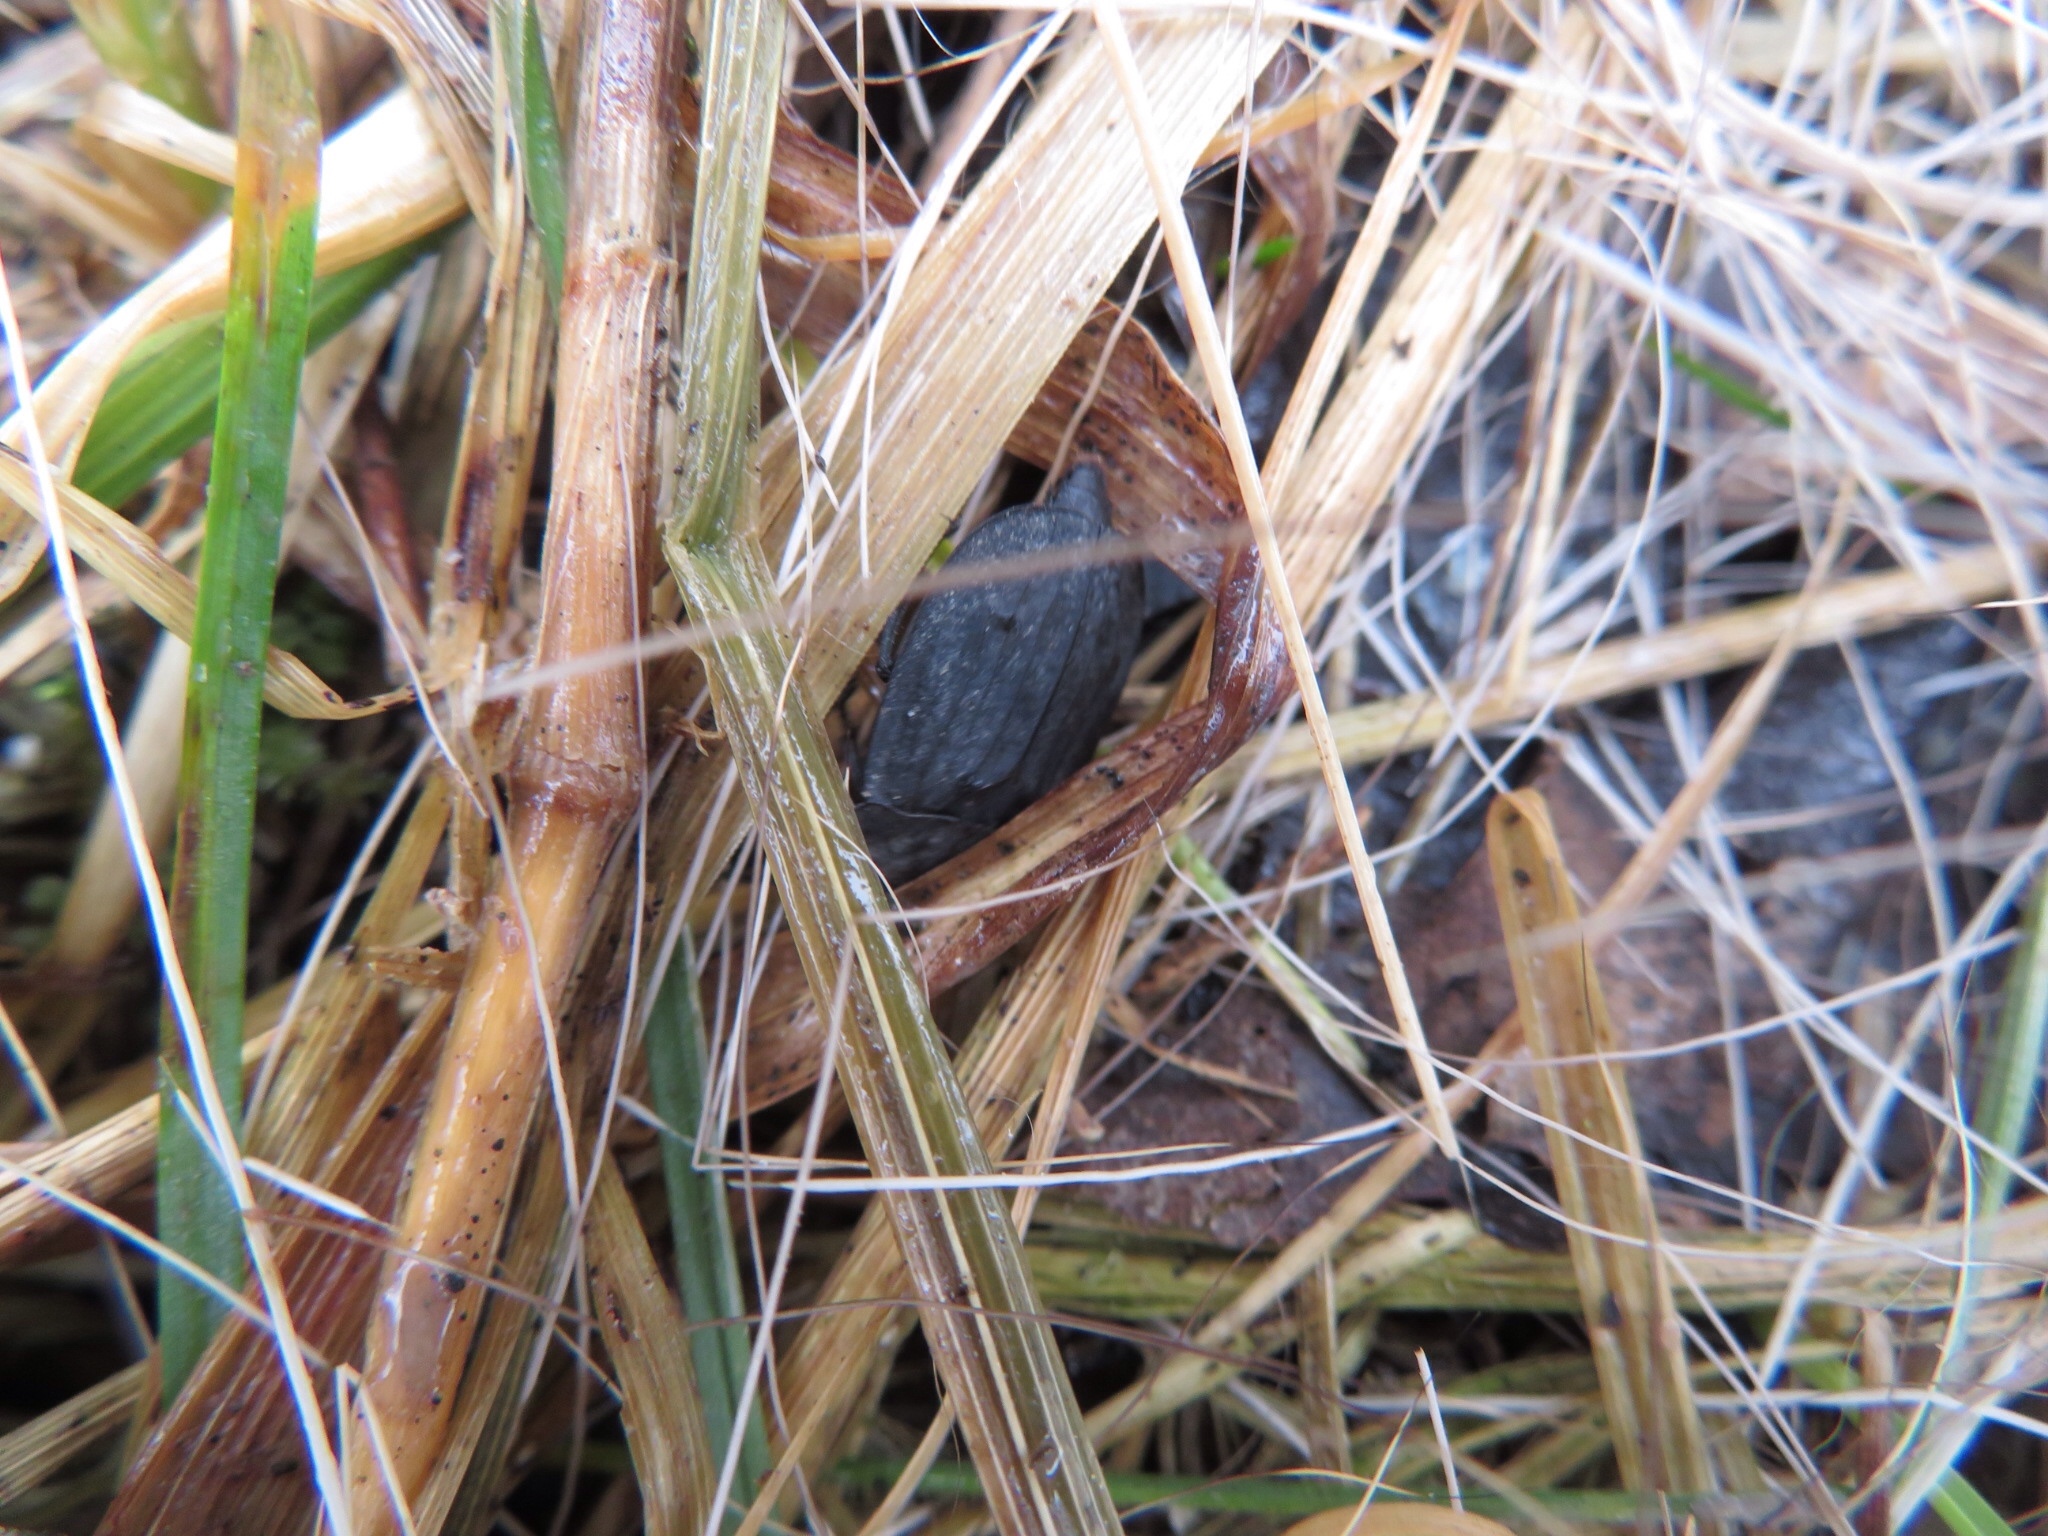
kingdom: Animalia
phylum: Arthropoda
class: Insecta
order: Coleoptera
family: Staphylinidae
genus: Oiceoptoma
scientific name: Oiceoptoma noveboracense
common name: Margined carrion beetle
